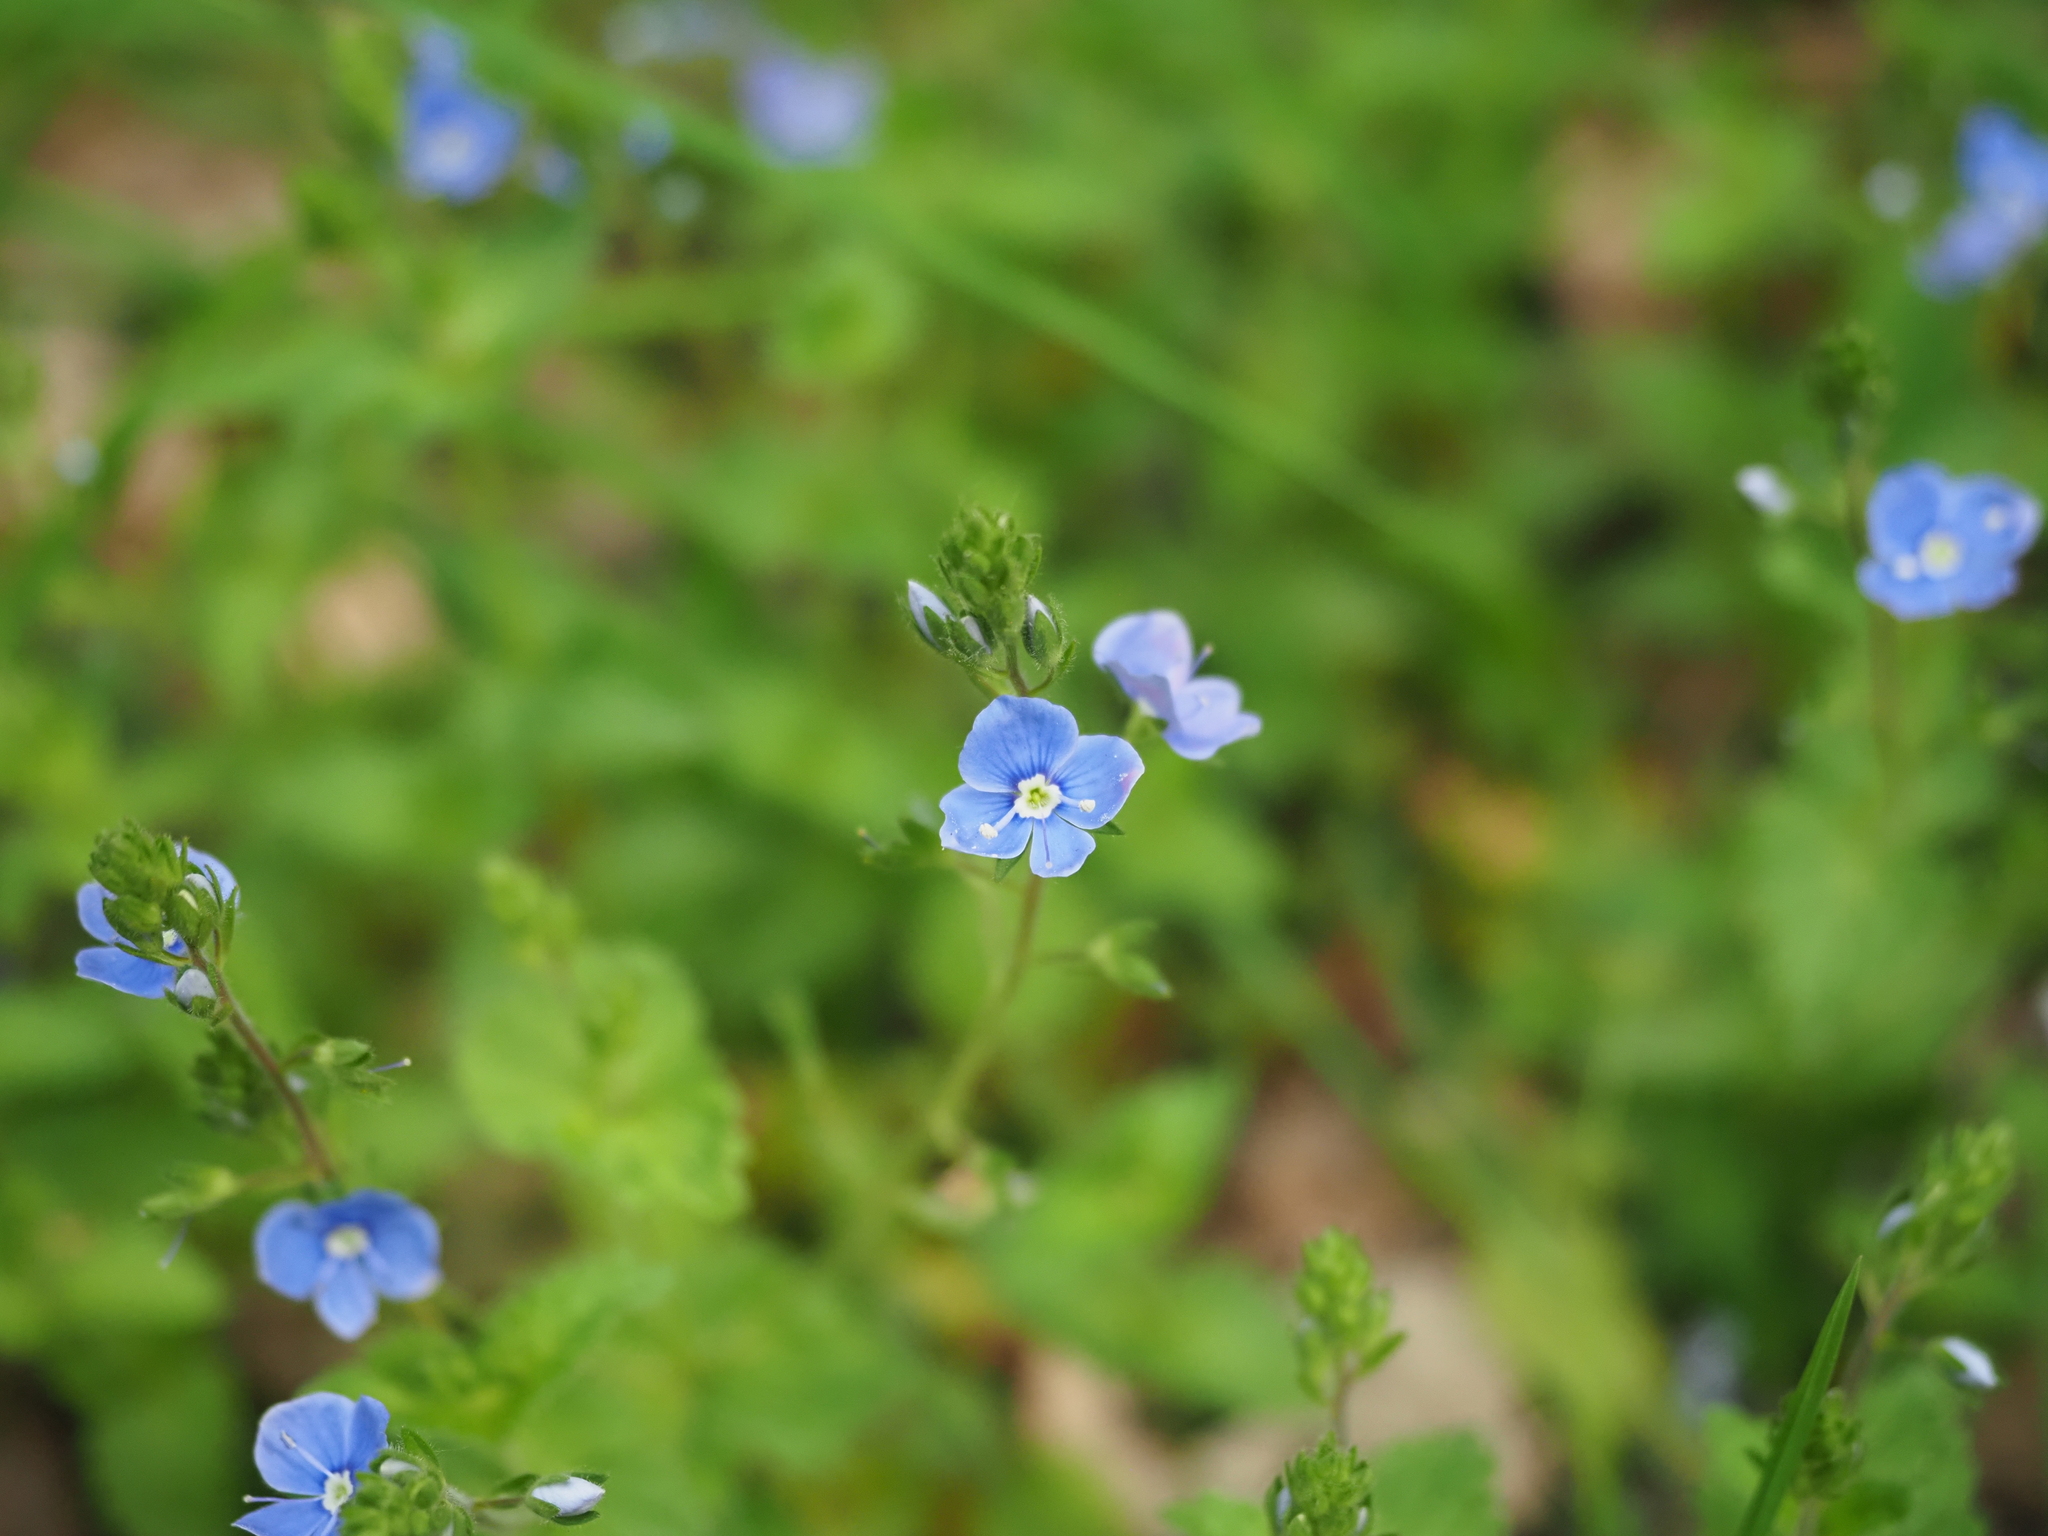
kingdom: Plantae
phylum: Tracheophyta
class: Magnoliopsida
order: Lamiales
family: Plantaginaceae
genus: Veronica
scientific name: Veronica chamaedrys
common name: Germander speedwell
